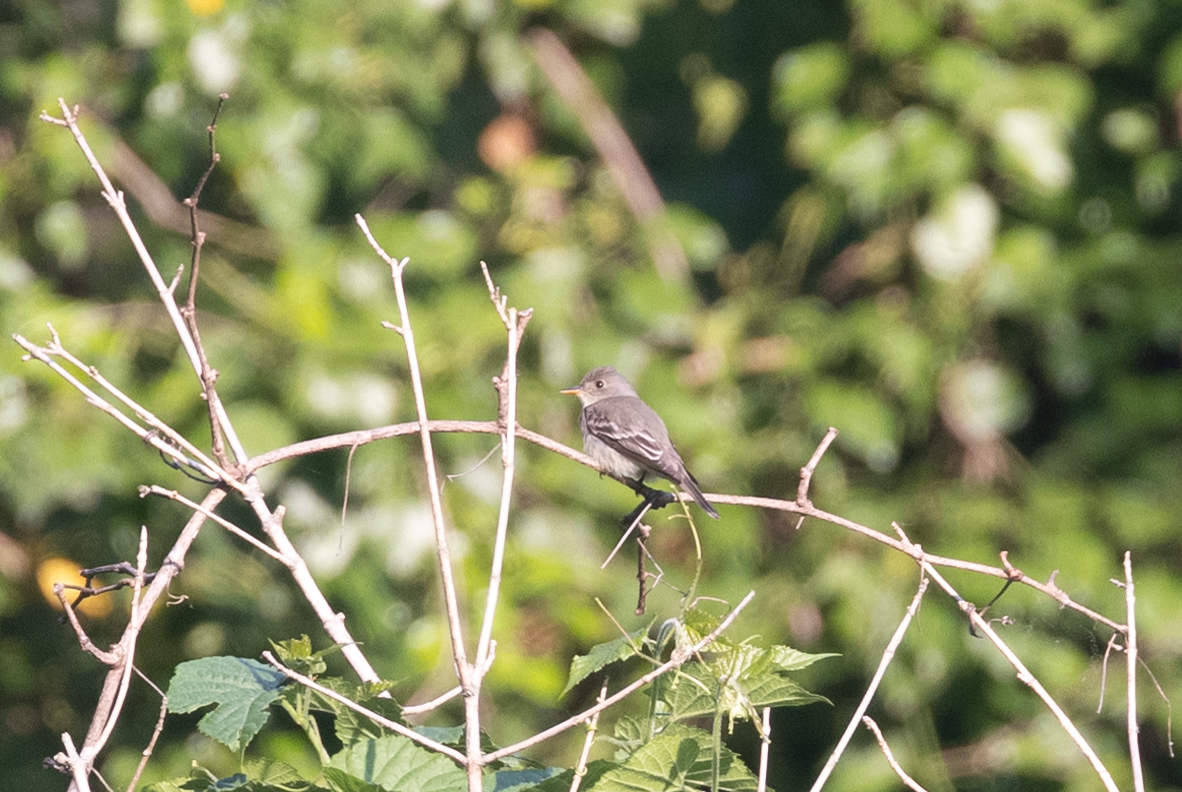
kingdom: Animalia
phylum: Chordata
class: Aves
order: Passeriformes
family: Tyrannidae
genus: Contopus
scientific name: Contopus virens
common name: Eastern wood-pewee
